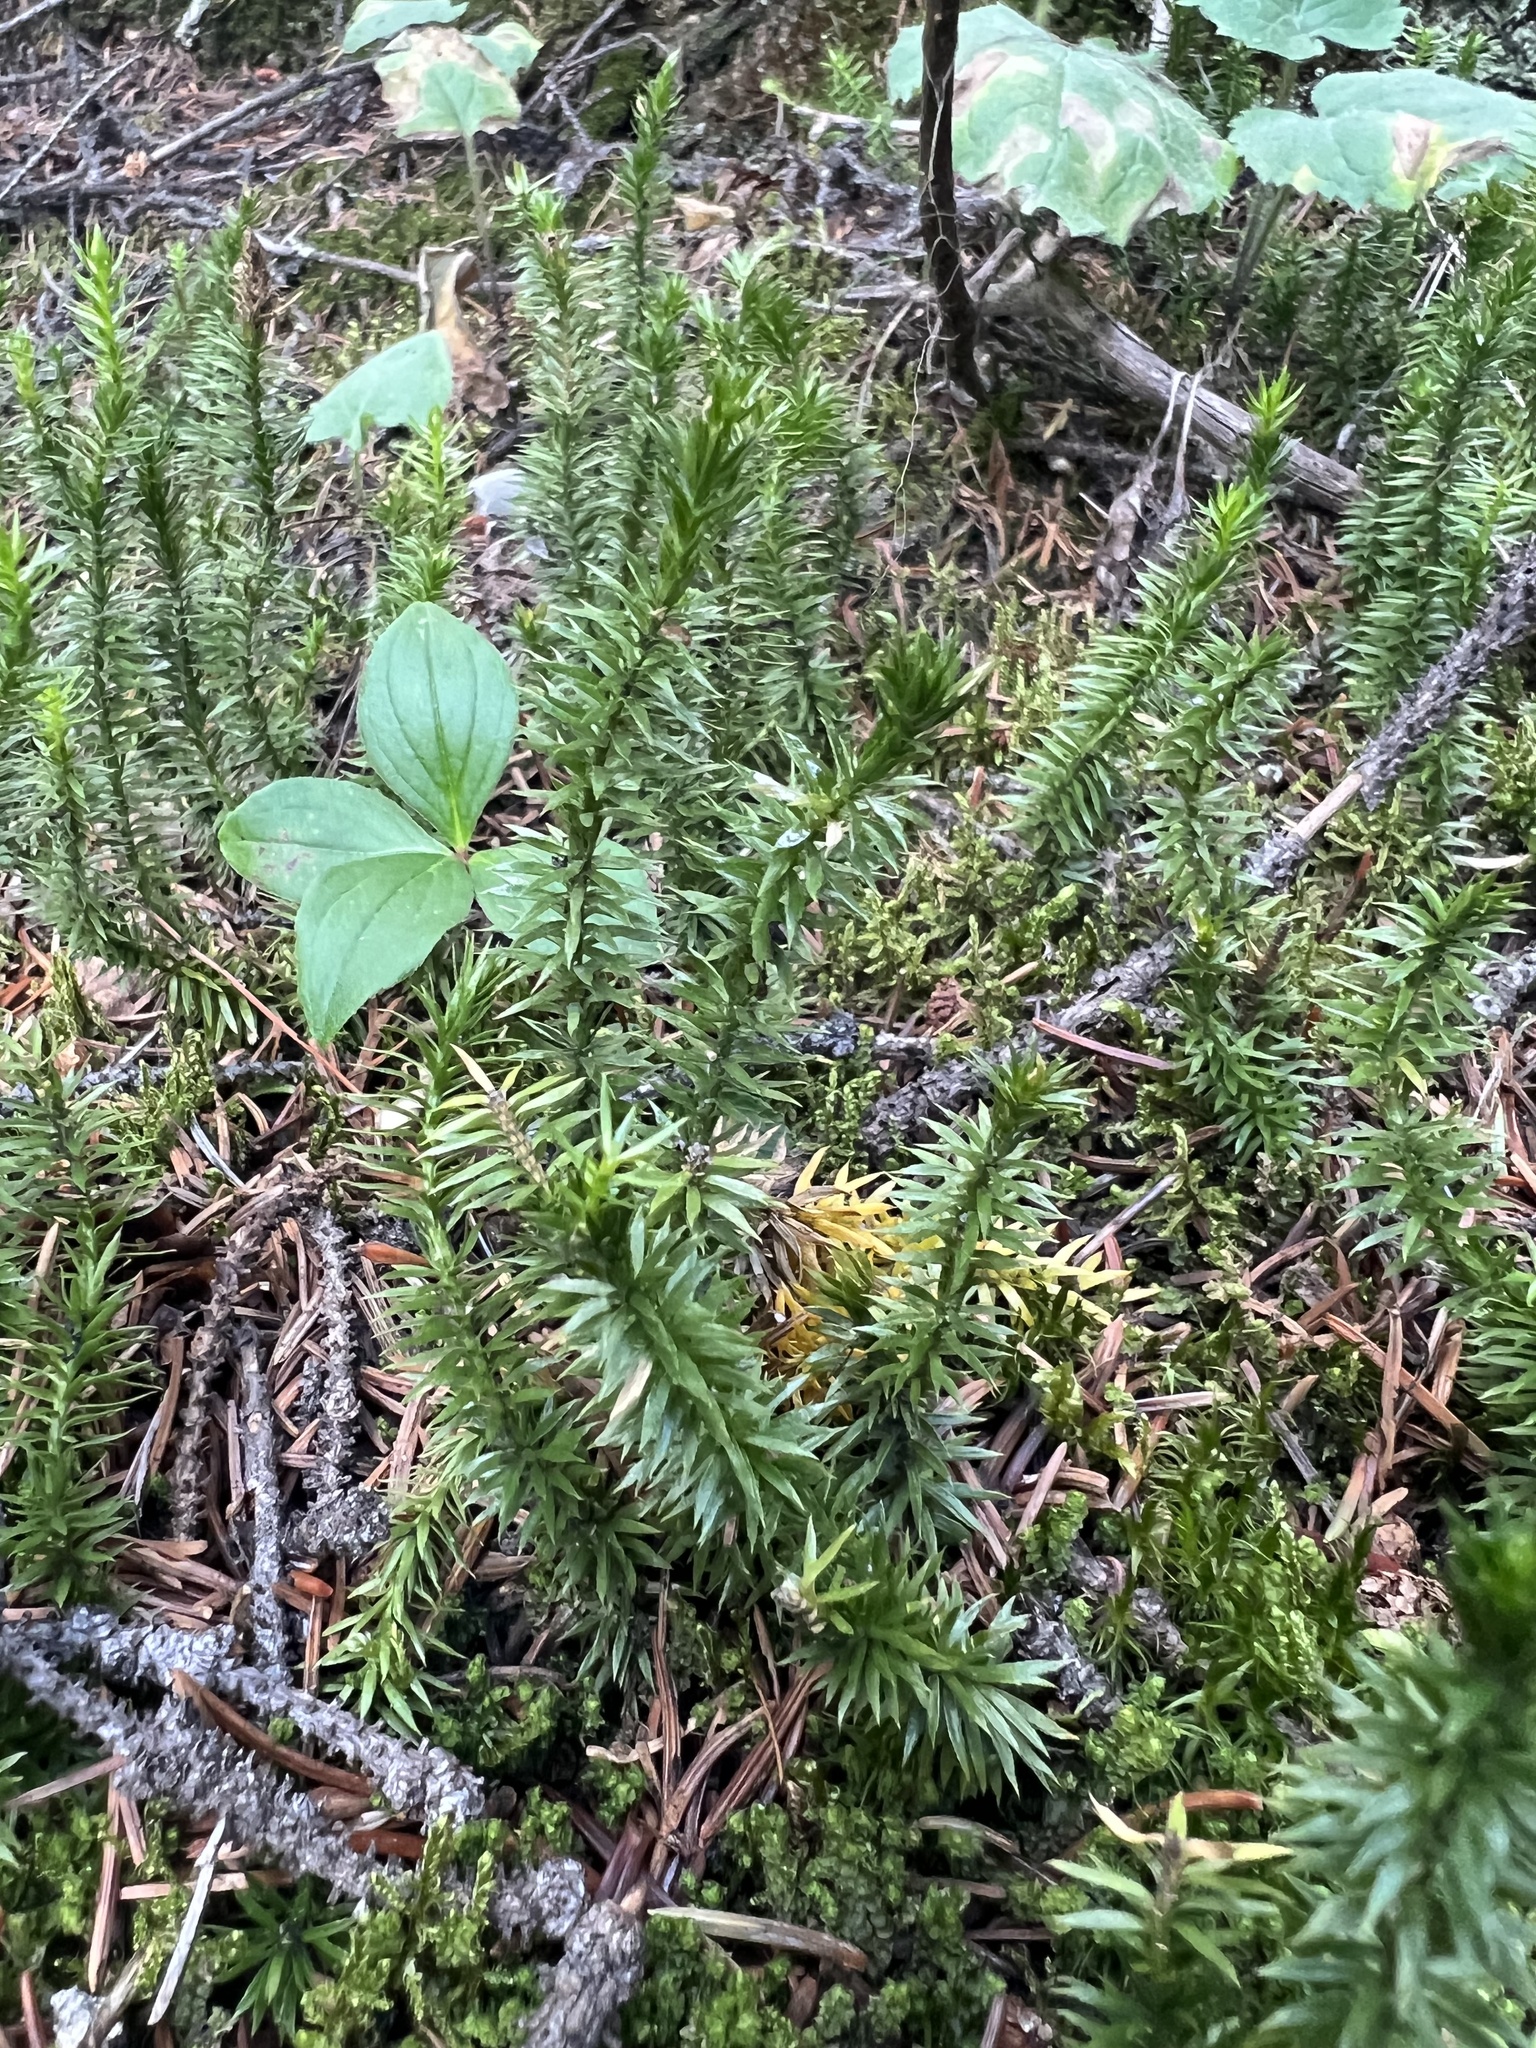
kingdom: Plantae
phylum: Tracheophyta
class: Lycopodiopsida
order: Lycopodiales
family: Lycopodiaceae
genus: Spinulum
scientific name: Spinulum annotinum
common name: Interrupted club-moss
